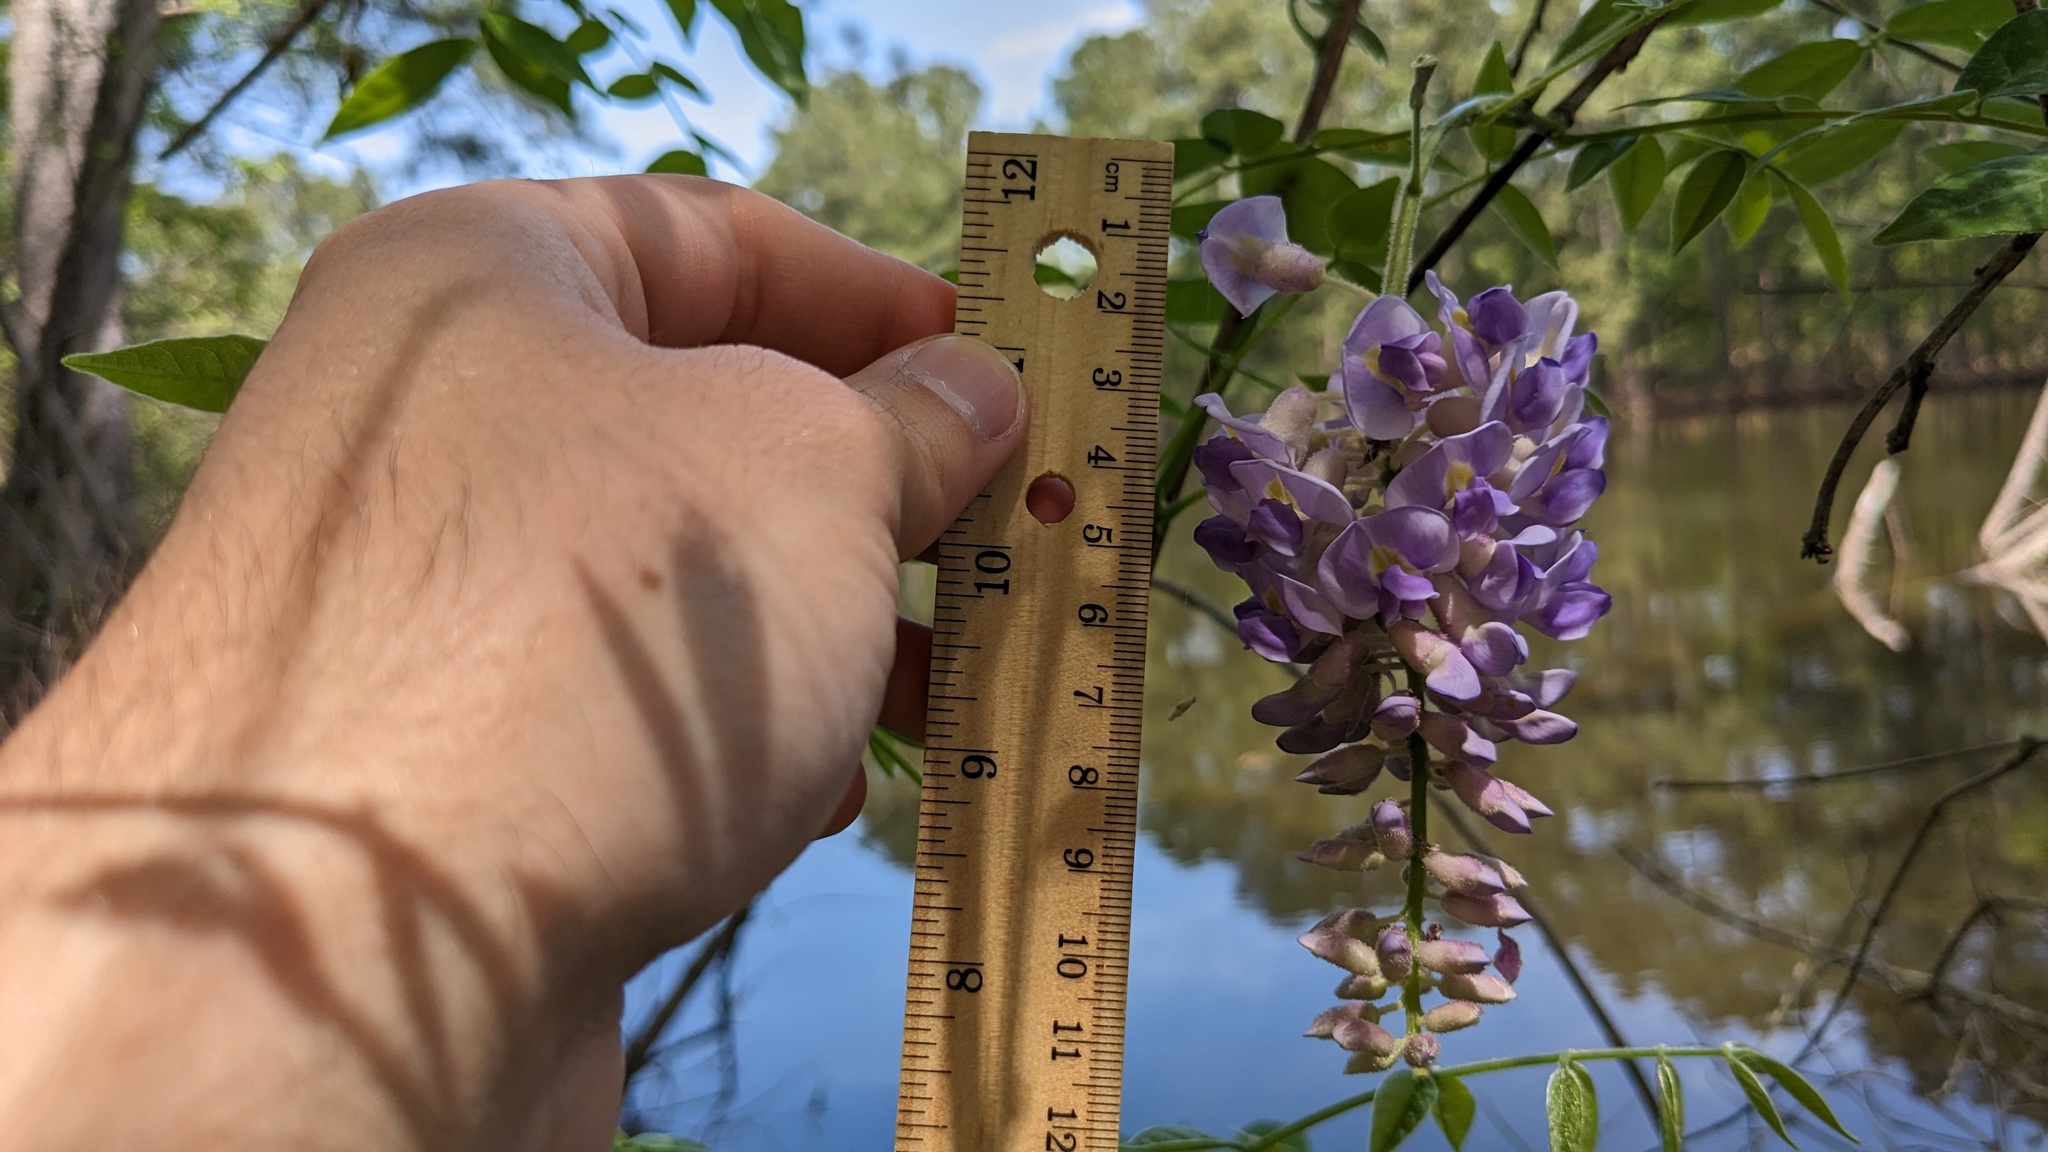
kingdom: Plantae
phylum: Tracheophyta
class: Magnoliopsida
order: Fabales
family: Fabaceae
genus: Wisteria
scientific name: Wisteria frutescens
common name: American wisteria
